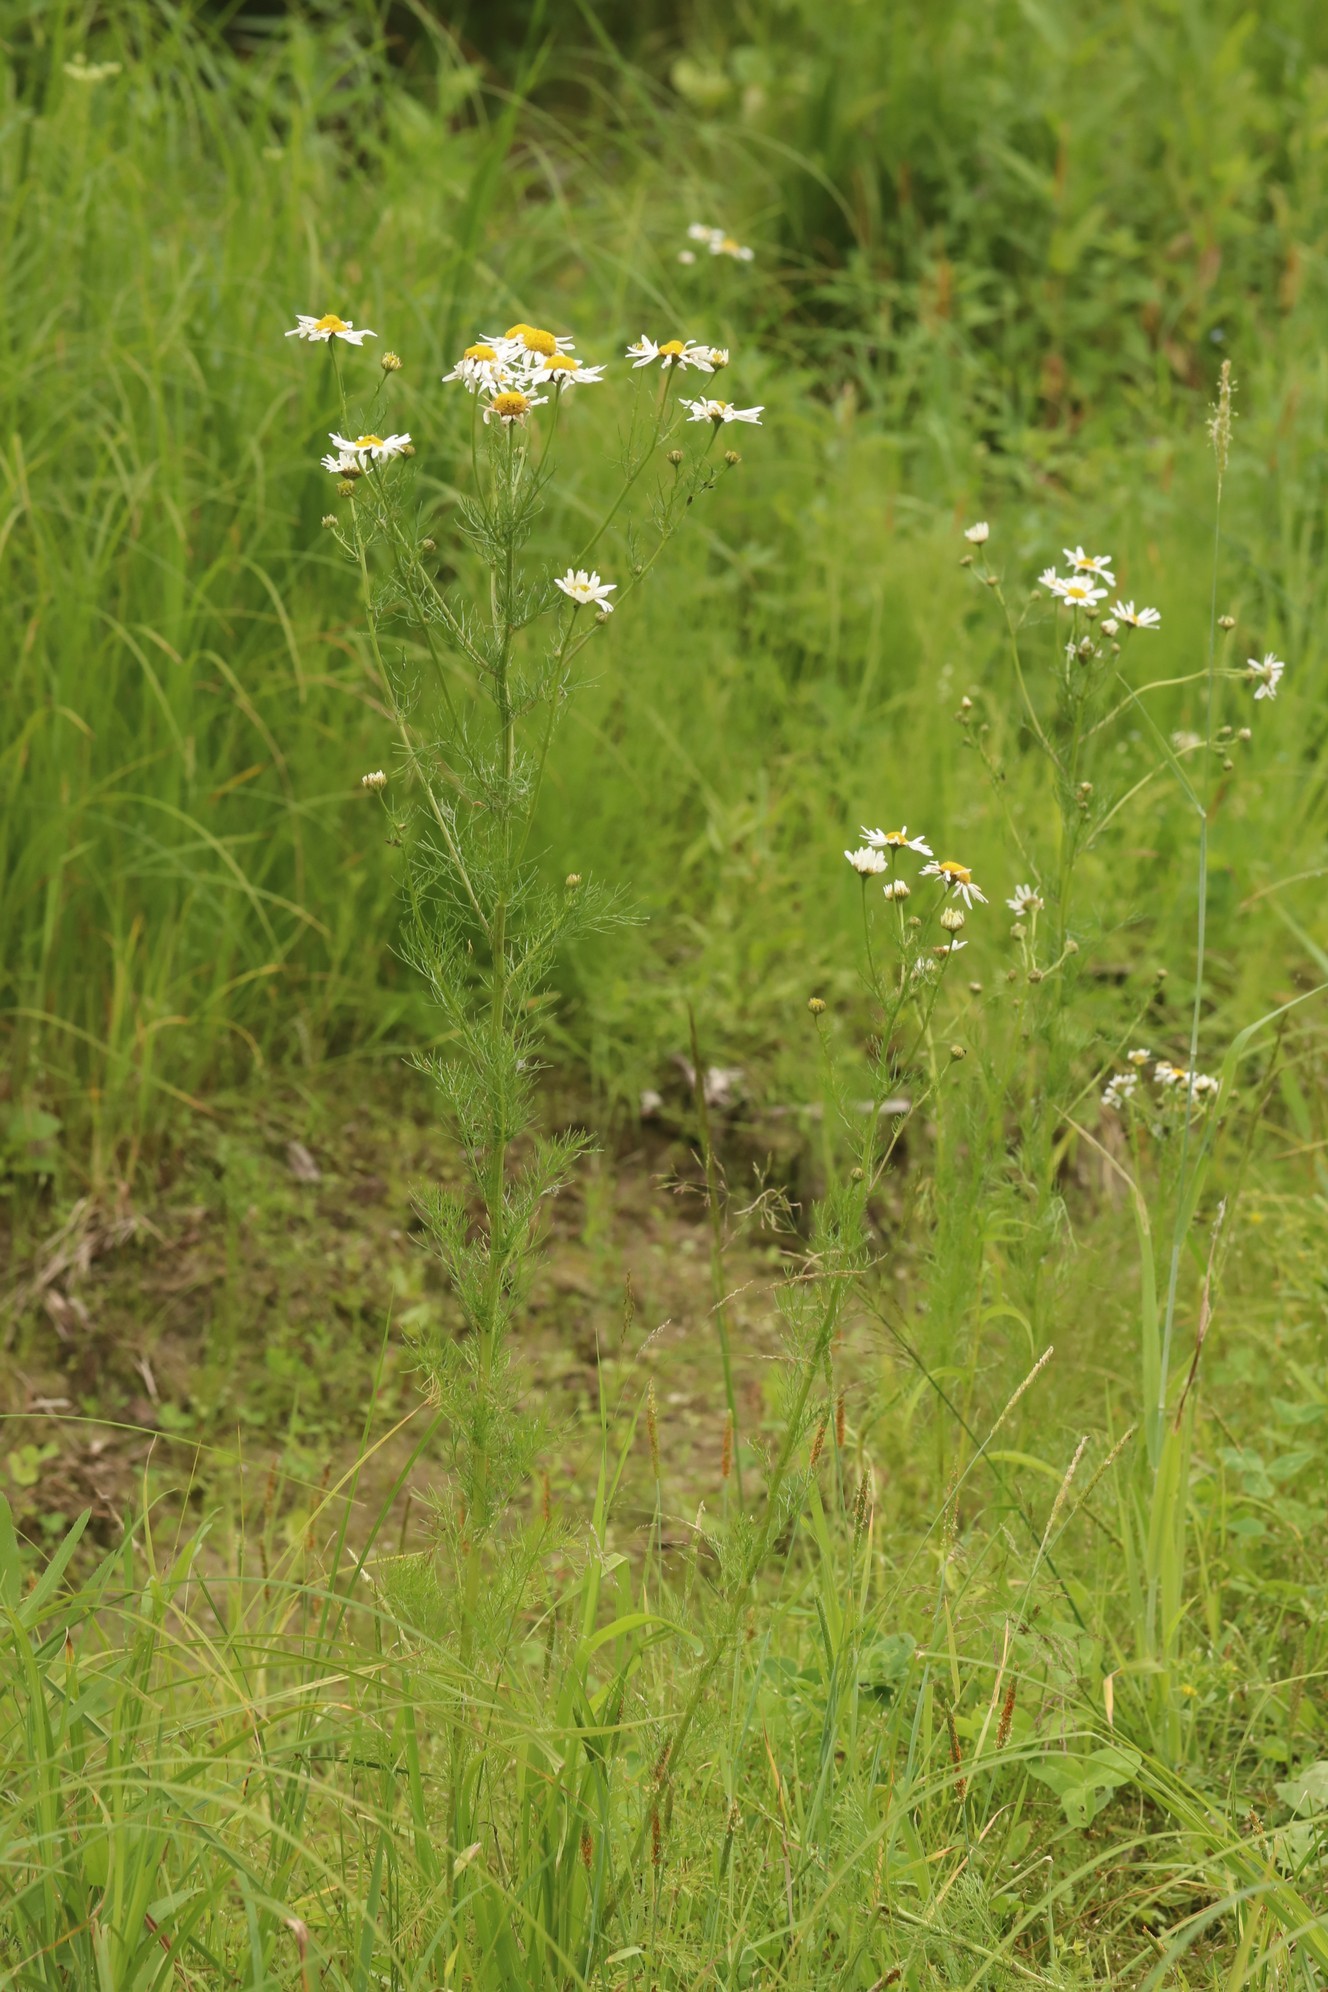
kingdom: Plantae
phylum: Tracheophyta
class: Magnoliopsida
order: Asterales
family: Asteraceae
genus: Tripleurospermum
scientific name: Tripleurospermum inodorum
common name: Scentless mayweed
